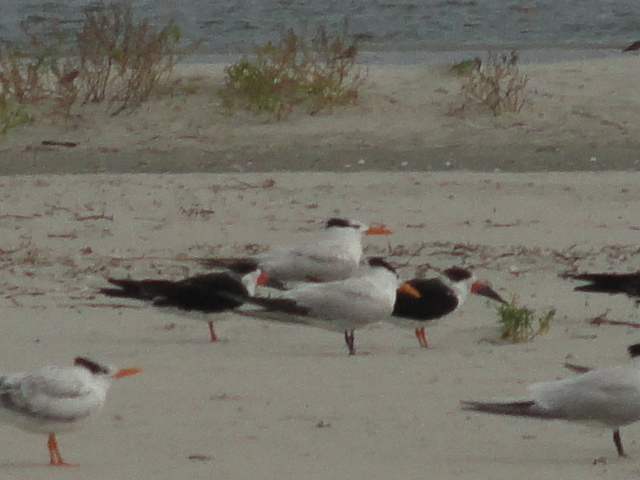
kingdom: Animalia
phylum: Chordata
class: Aves
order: Charadriiformes
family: Laridae
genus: Rynchops
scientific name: Rynchops niger
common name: Black skimmer
